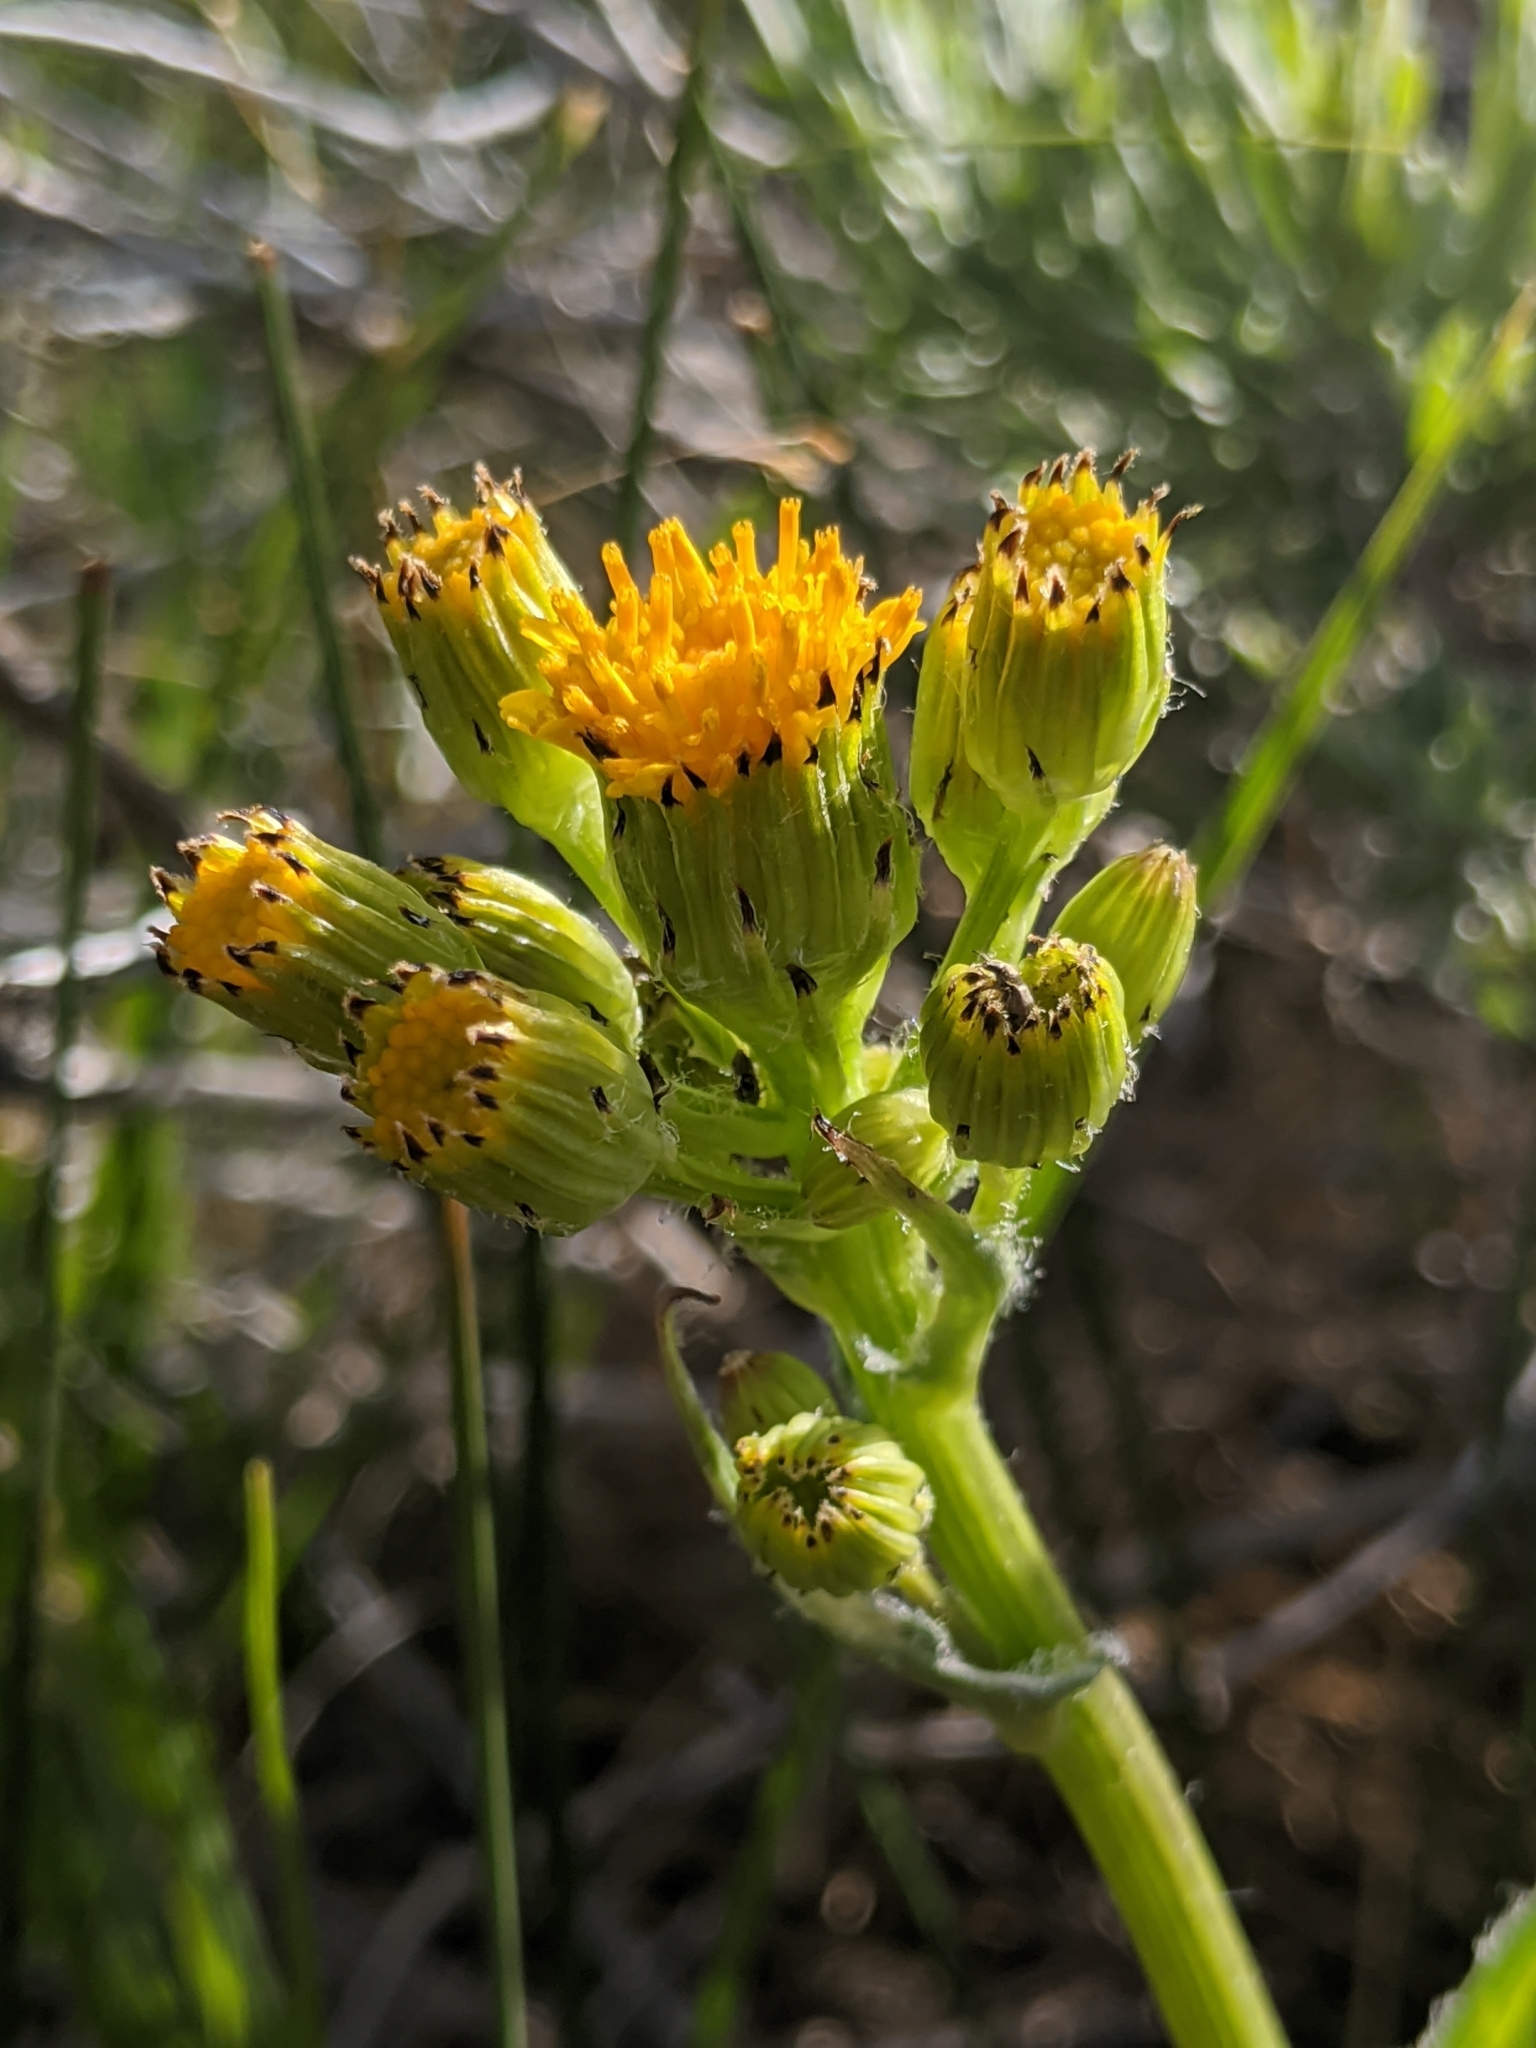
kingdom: Plantae
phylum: Tracheophyta
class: Magnoliopsida
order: Asterales
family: Asteraceae
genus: Senecio
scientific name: Senecio integerrimus
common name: Gaugeplant
